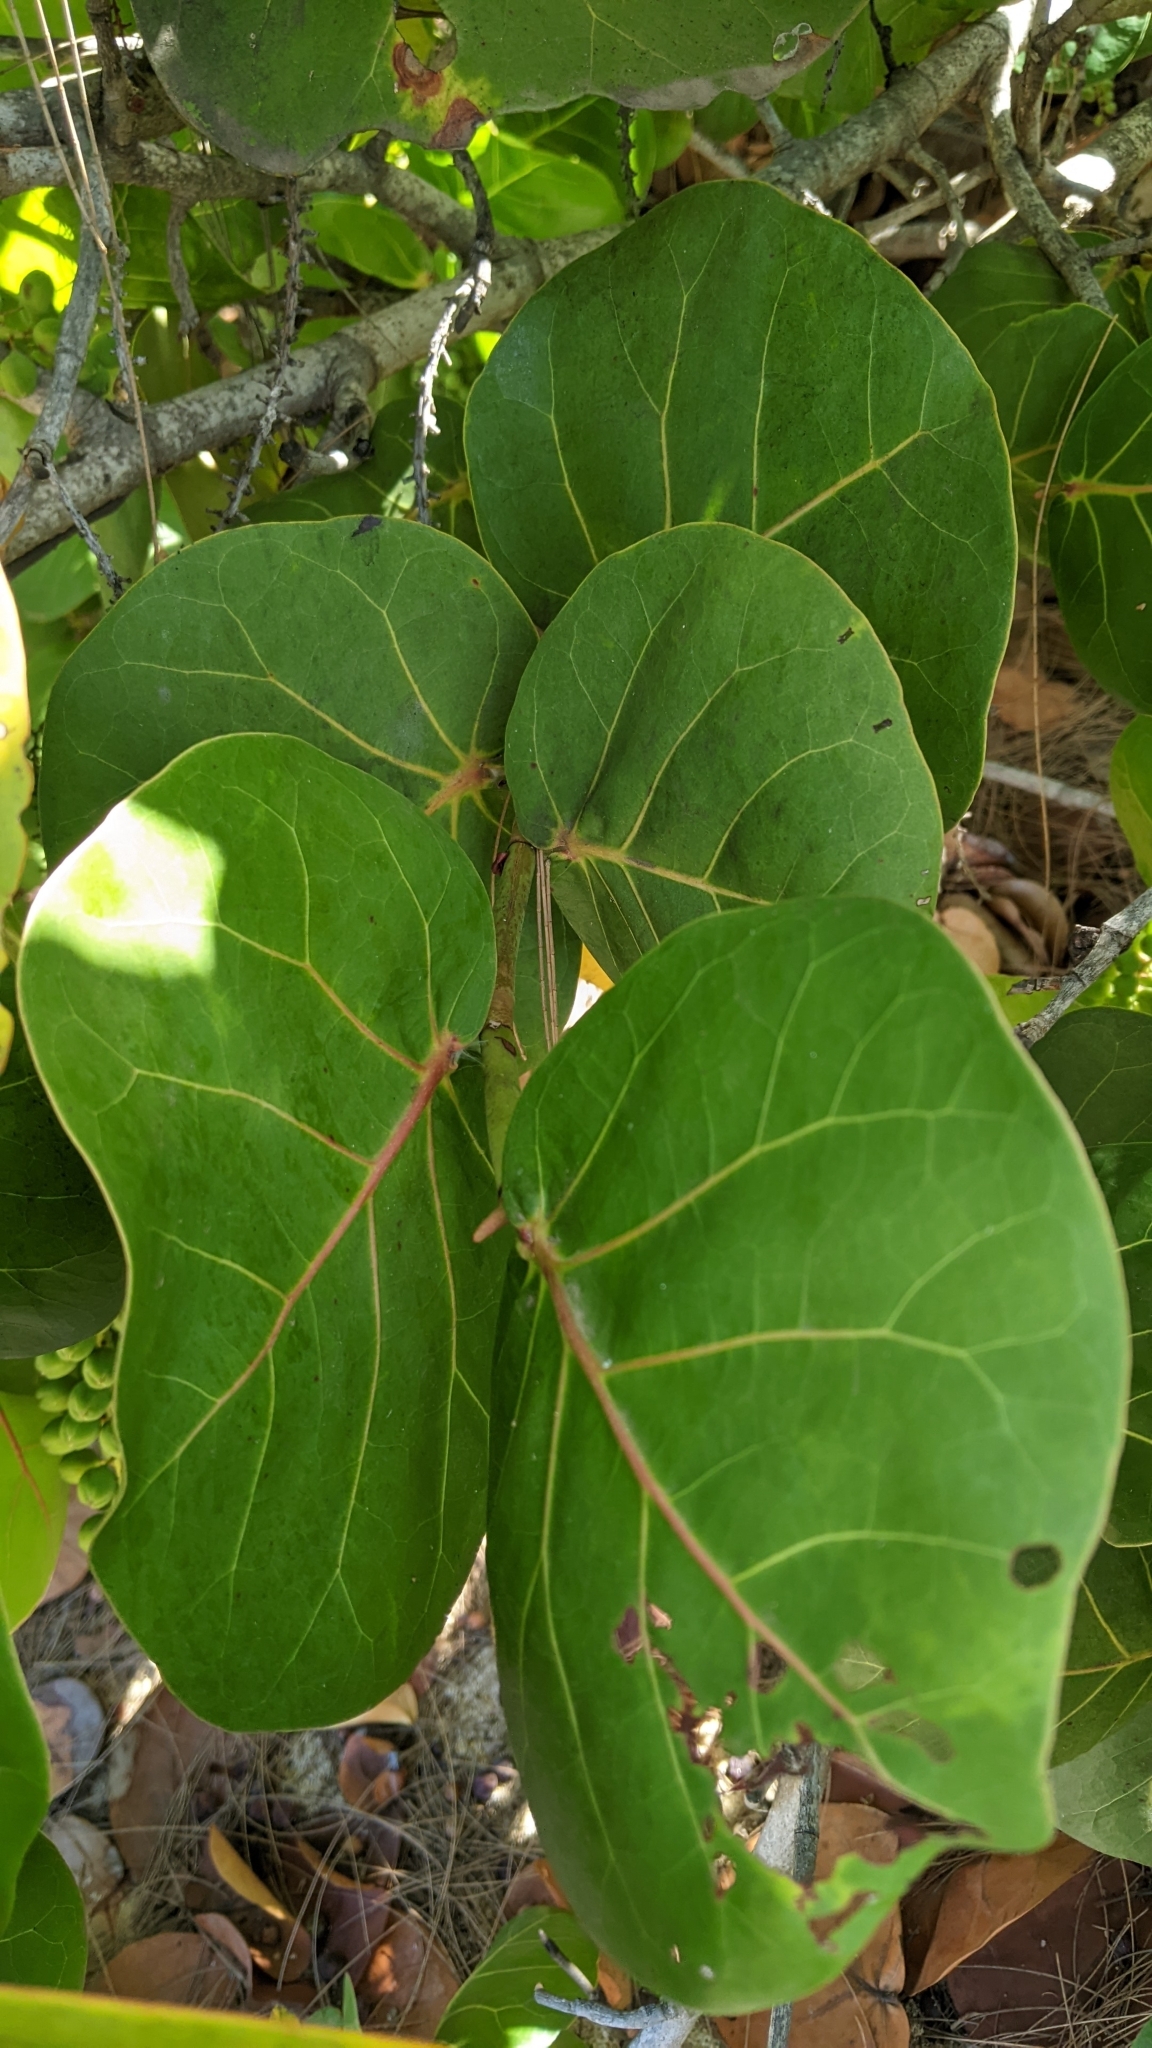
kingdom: Plantae
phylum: Tracheophyta
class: Magnoliopsida
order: Caryophyllales
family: Polygonaceae
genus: Coccoloba
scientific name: Coccoloba uvifera
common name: Seagrape
